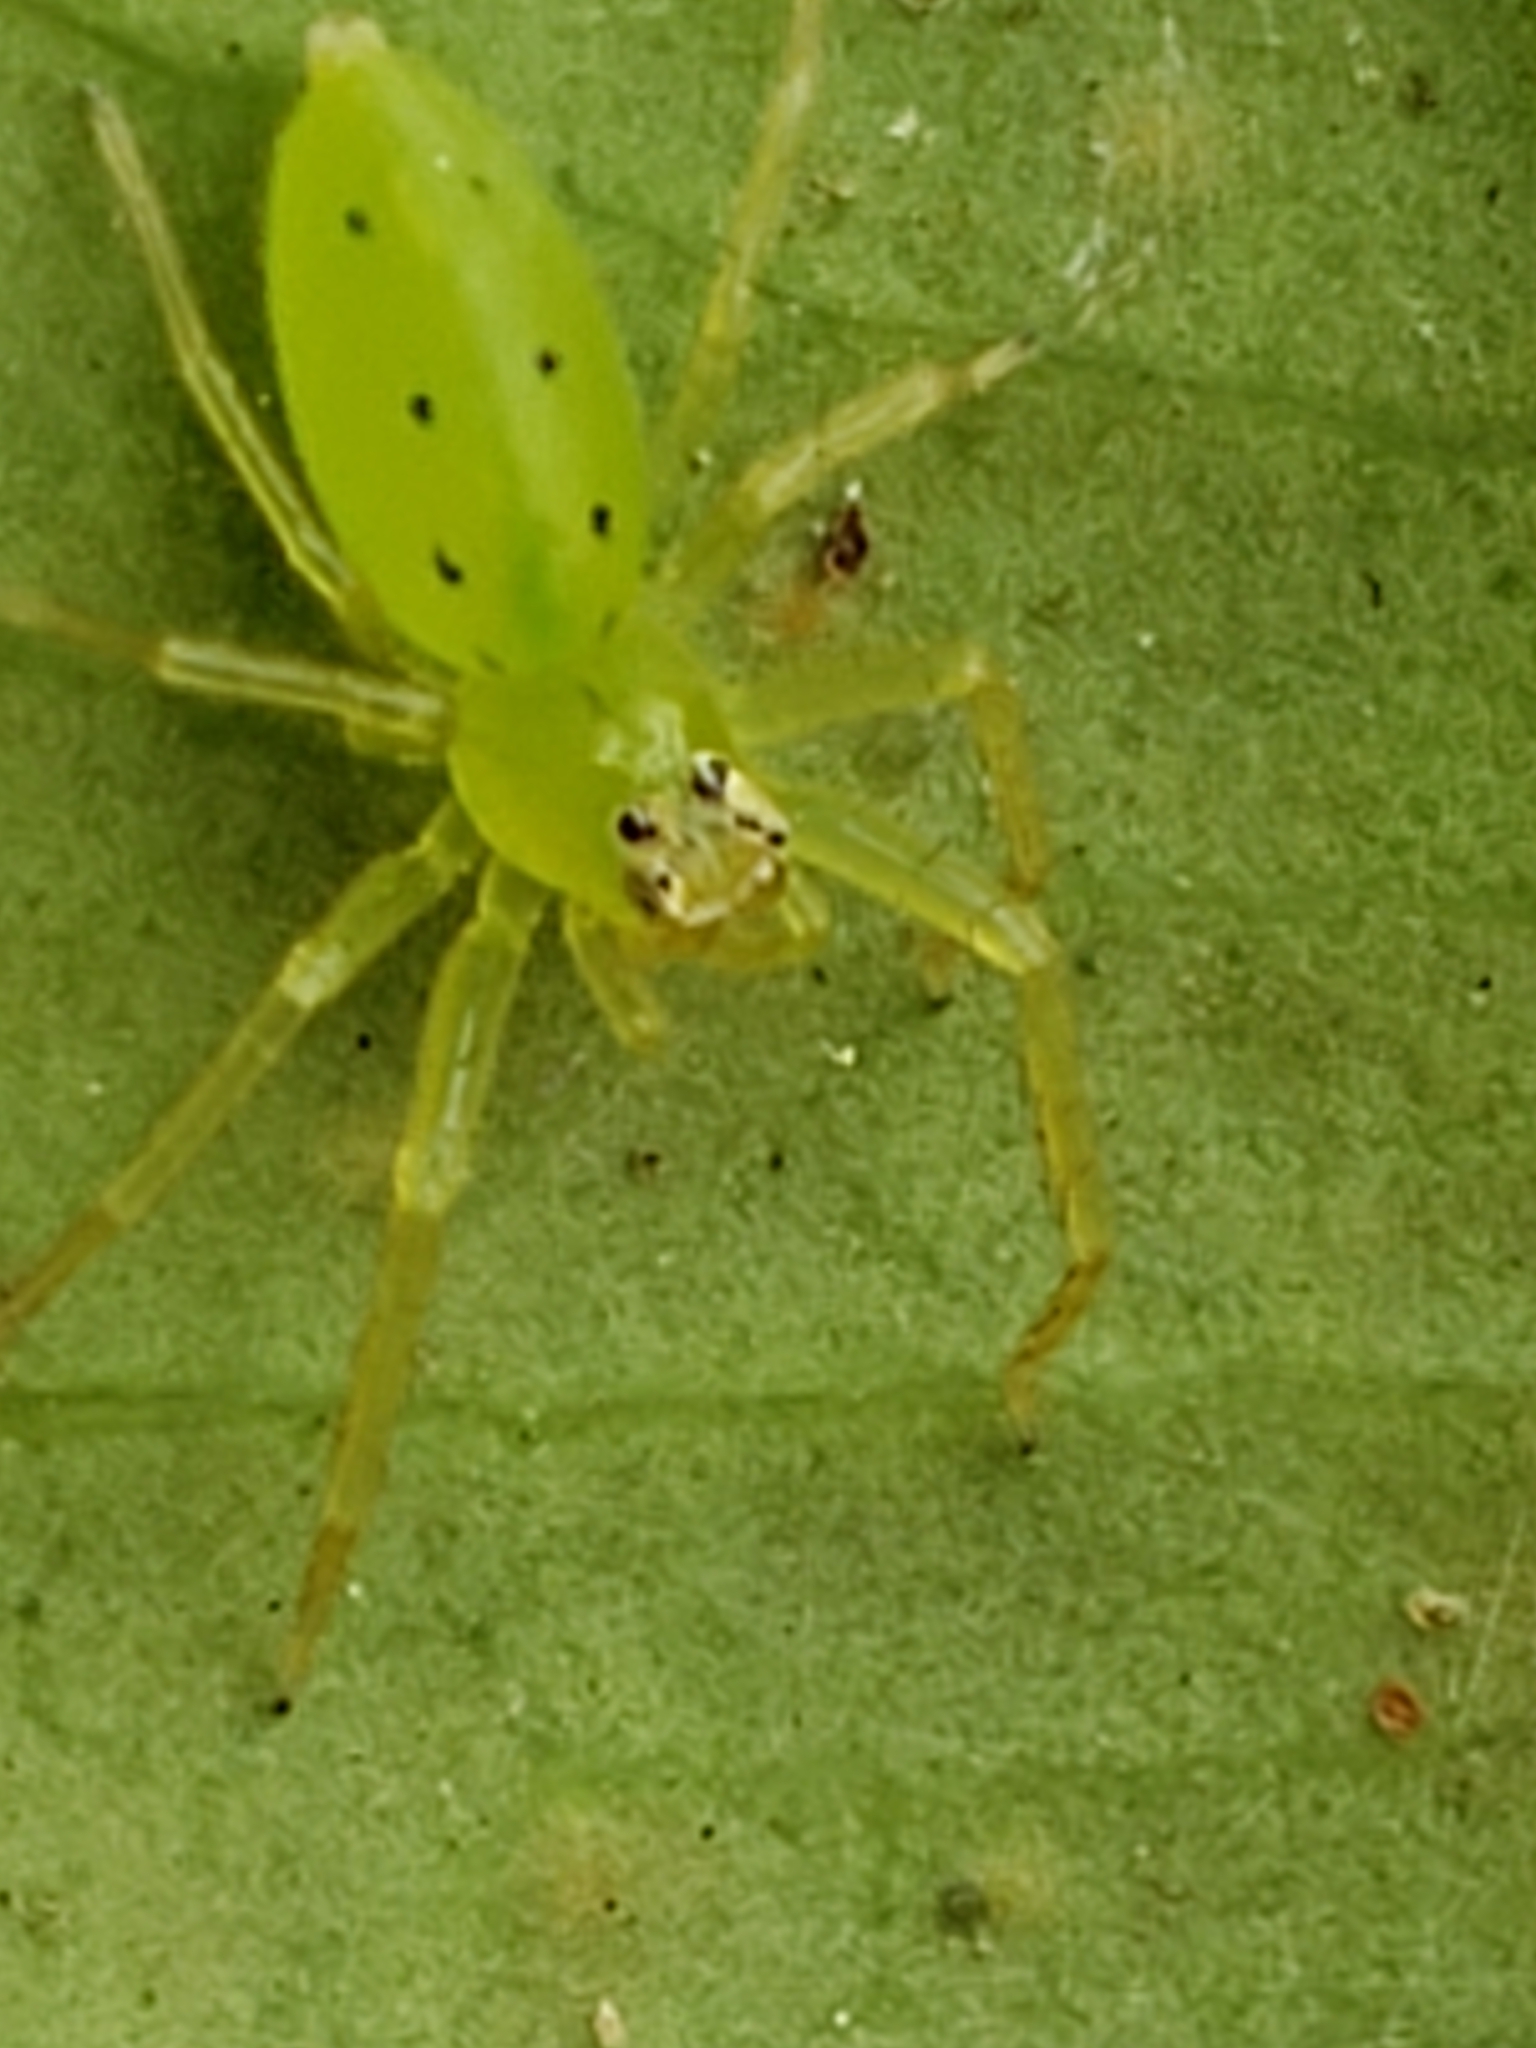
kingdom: Animalia
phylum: Arthropoda
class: Arachnida
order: Araneae
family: Salticidae
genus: Lyssomanes
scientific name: Lyssomanes viridis
